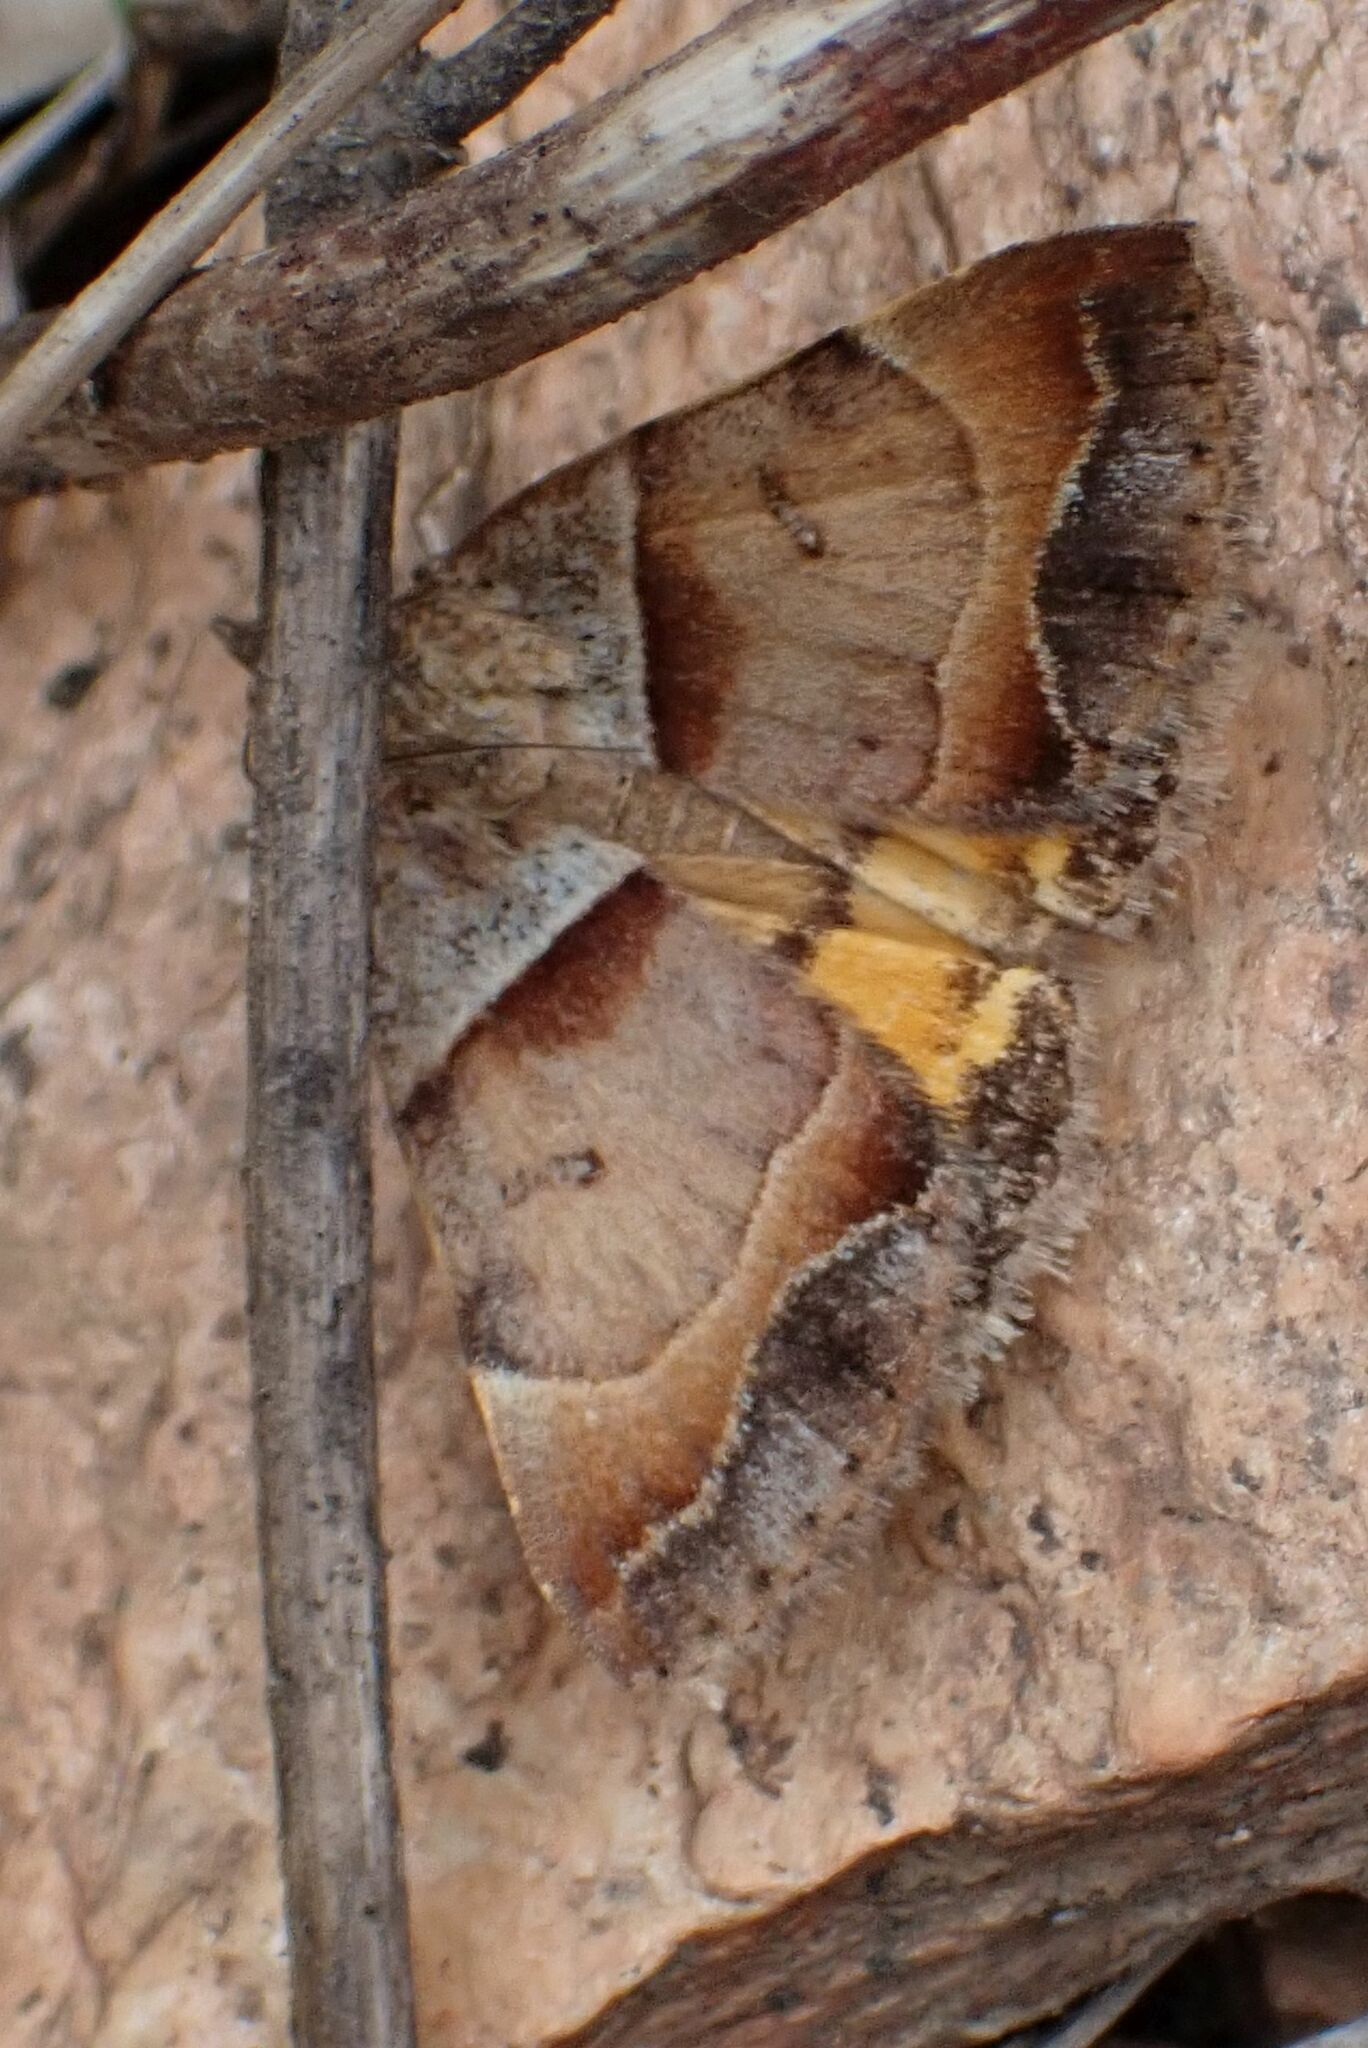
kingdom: Animalia
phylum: Arthropoda
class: Insecta
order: Lepidoptera
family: Erebidae
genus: Plecopterodes
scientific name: Plecopterodes moderata
